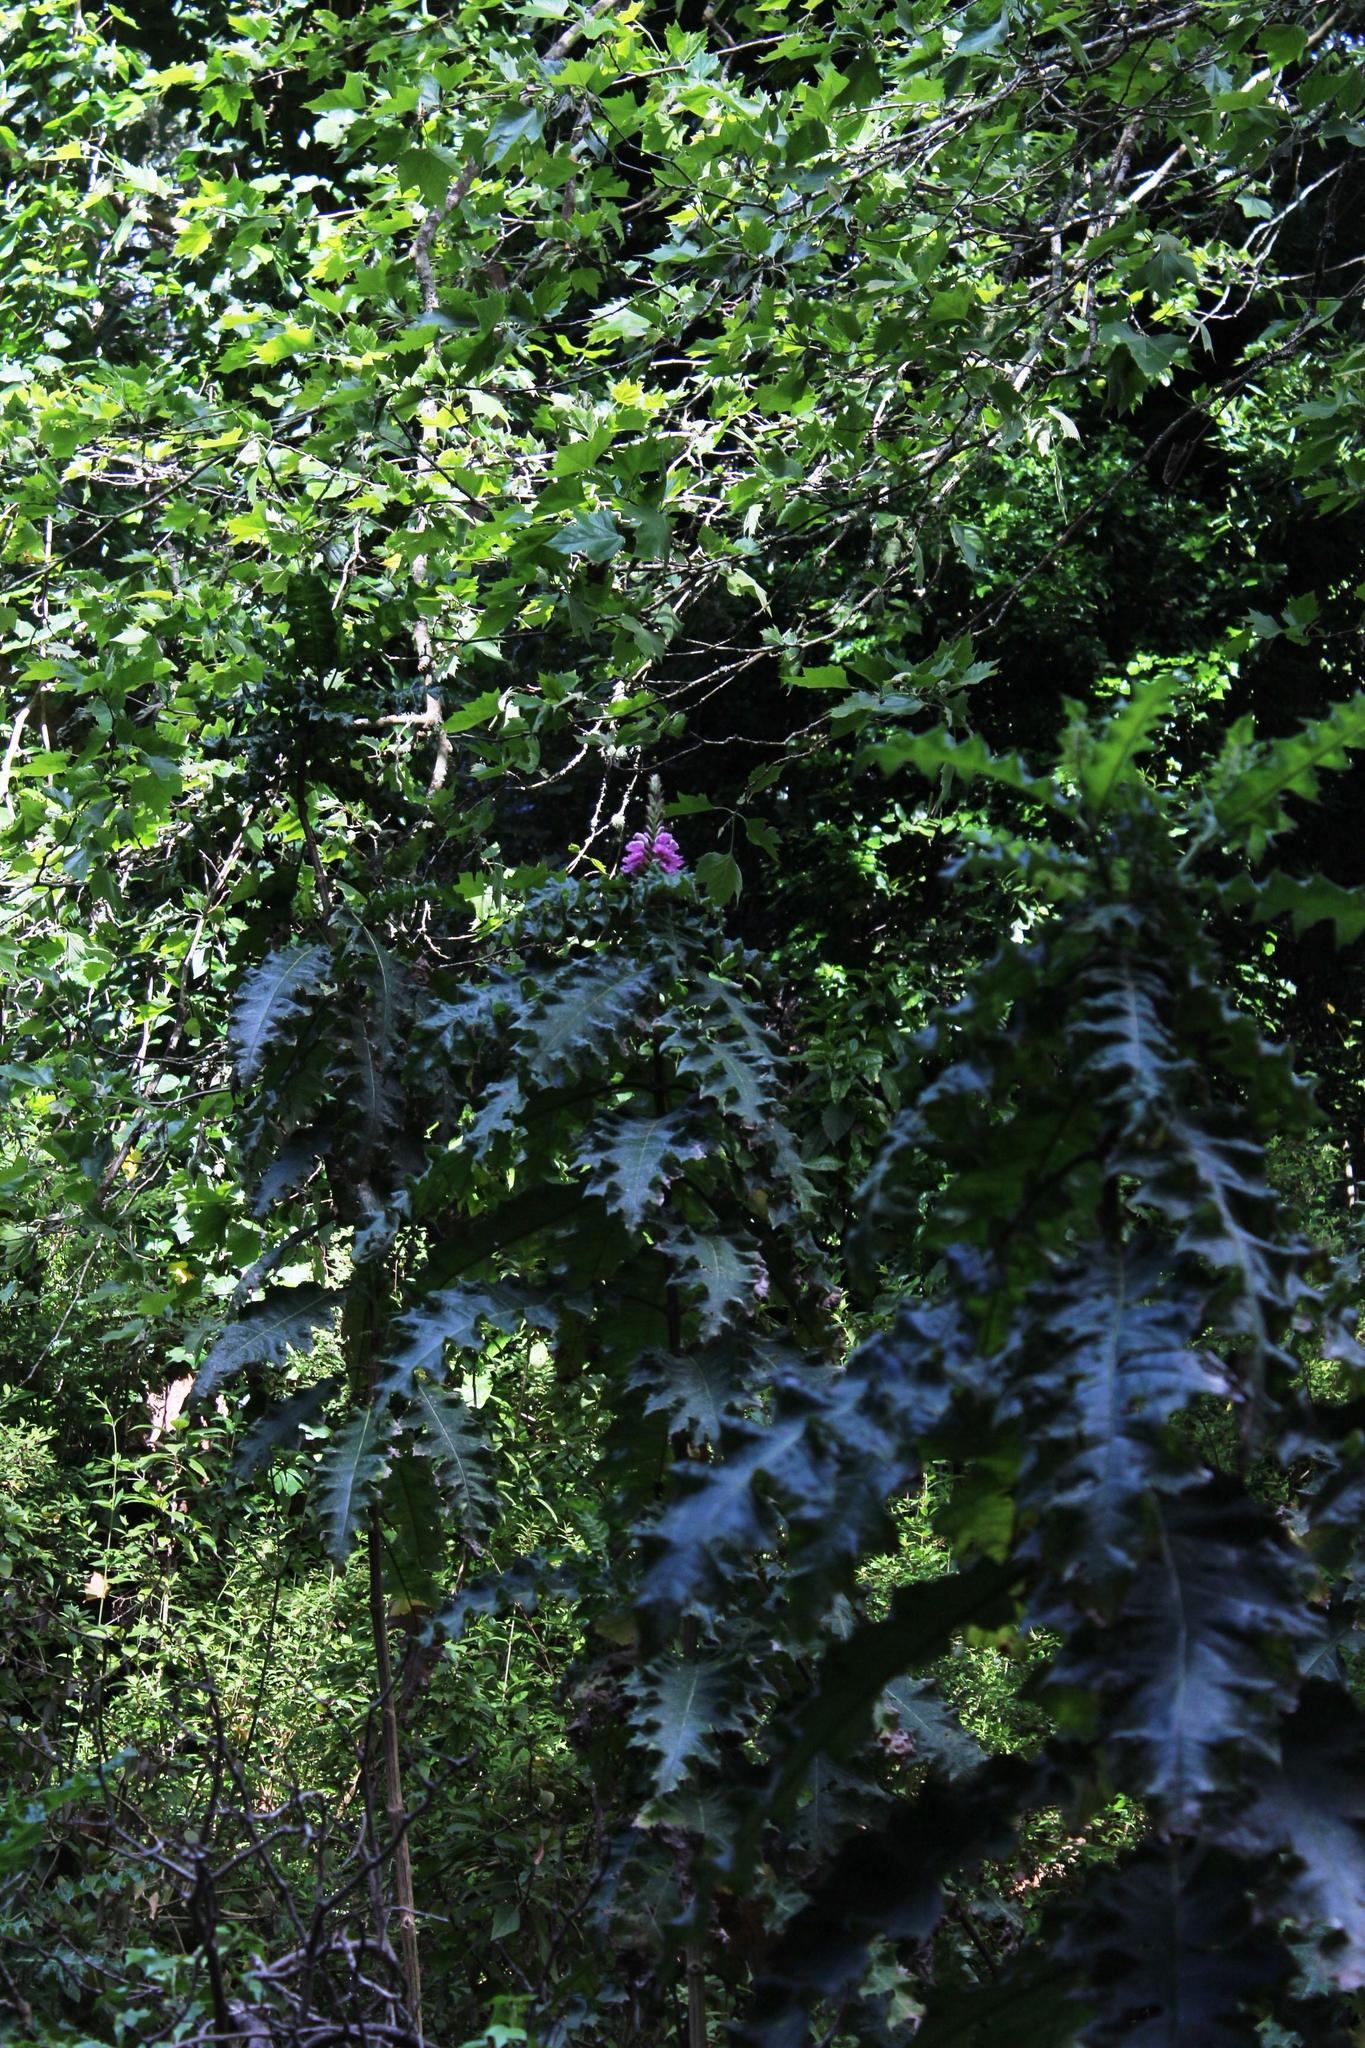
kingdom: Plantae
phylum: Tracheophyta
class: Magnoliopsida
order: Lamiales
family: Acanthaceae
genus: Acanthus
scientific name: Acanthus polystachyus
